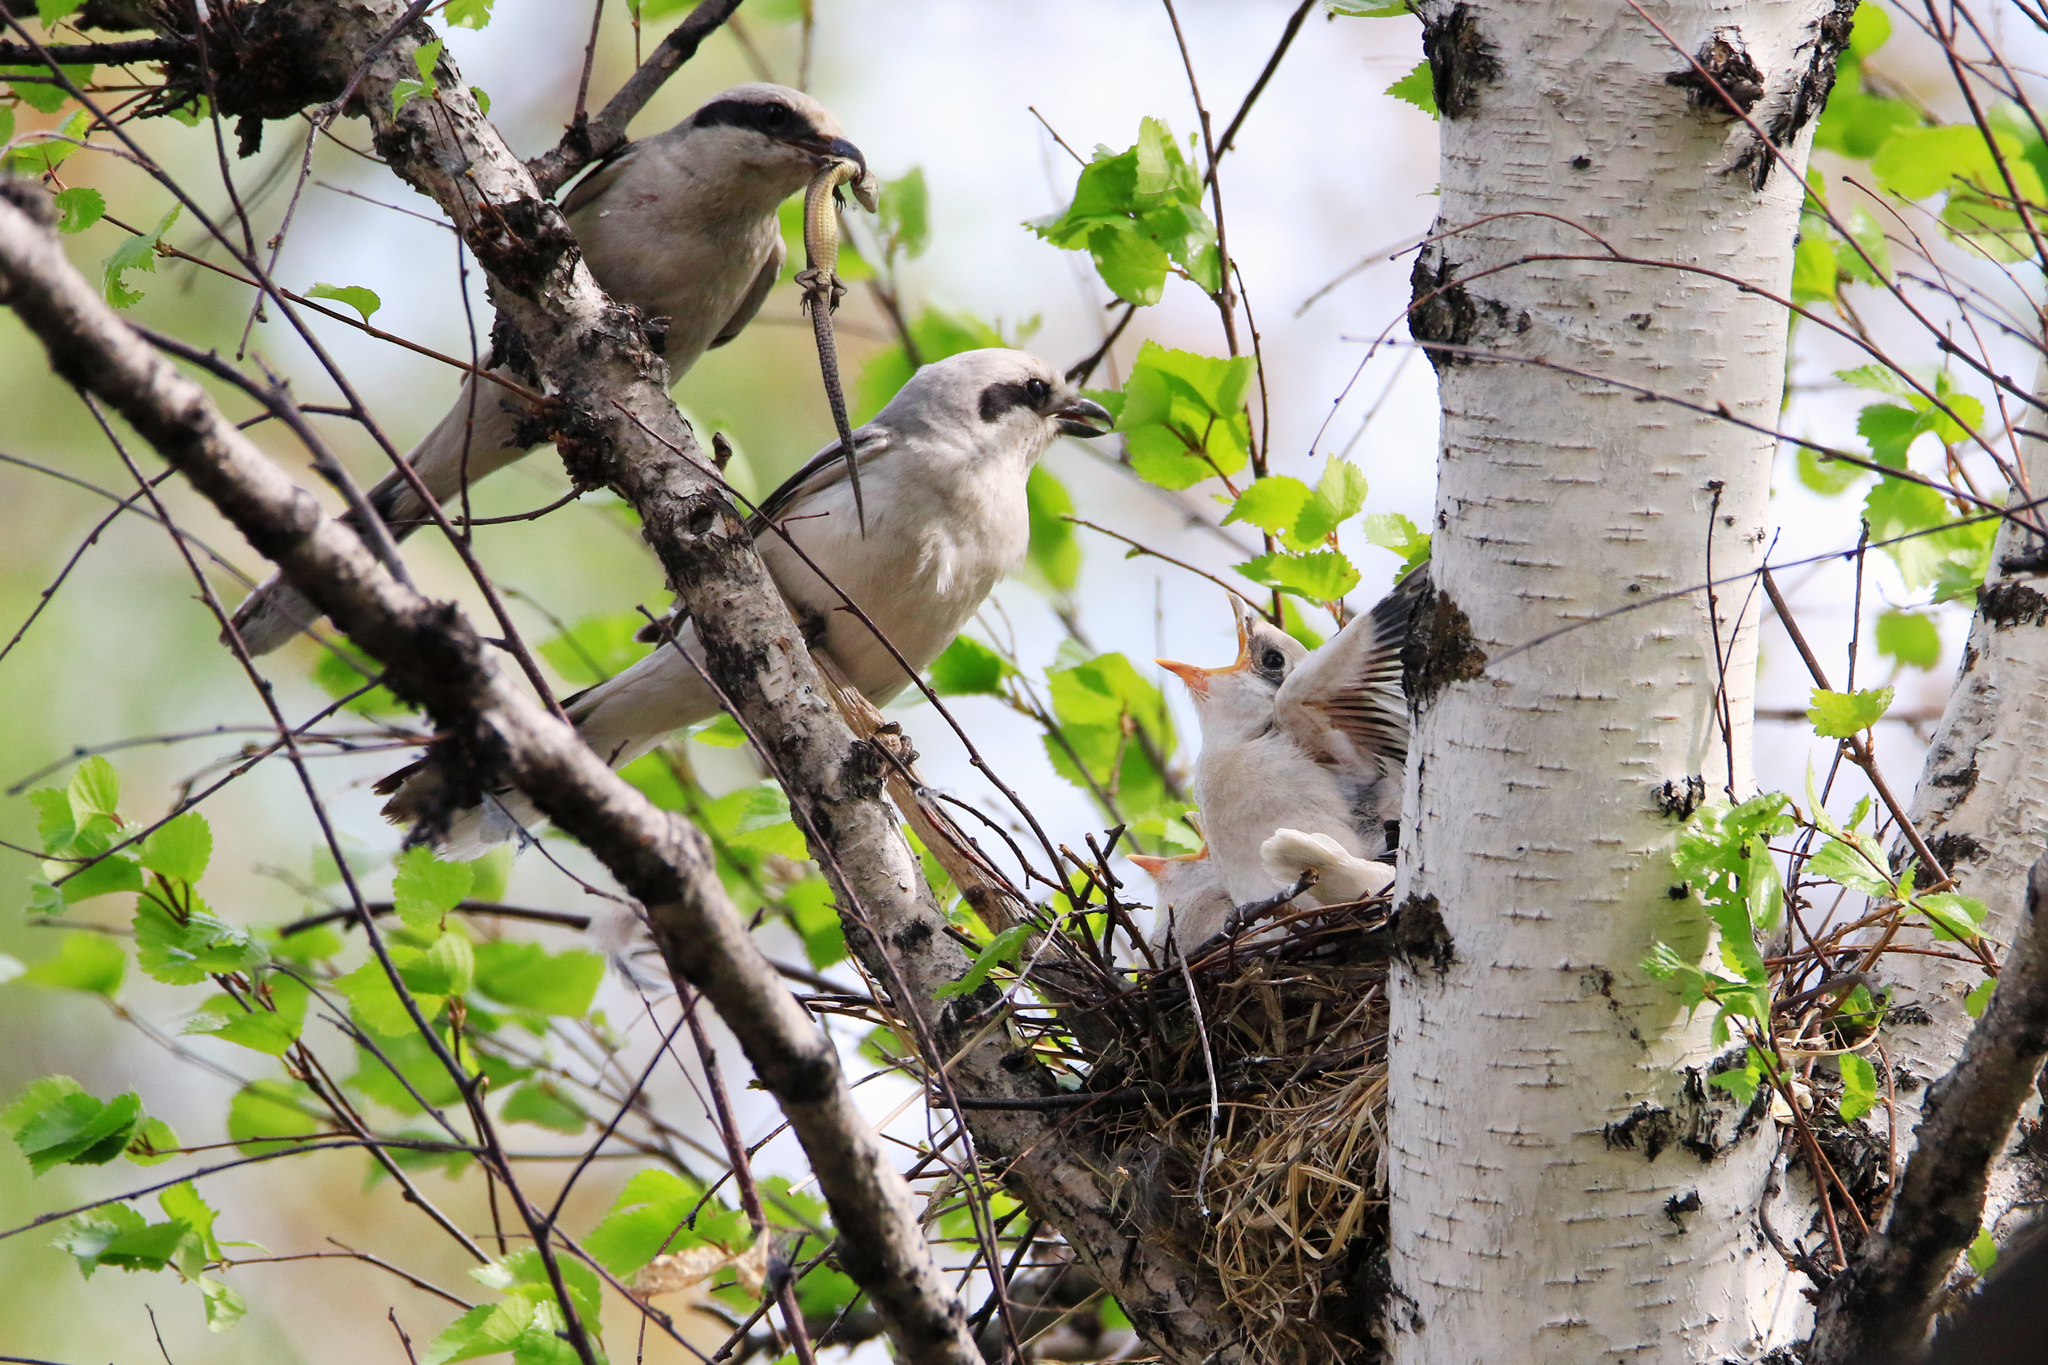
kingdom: Animalia
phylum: Chordata
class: Aves
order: Passeriformes
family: Laniidae
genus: Lanius
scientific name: Lanius excubitor
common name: Great grey shrike
